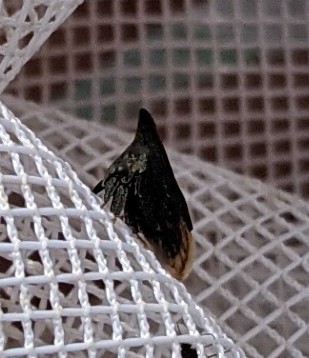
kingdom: Animalia
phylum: Arthropoda
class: Insecta
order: Hemiptera
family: Membracidae
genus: Enchenopa
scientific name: Enchenopa latipes
